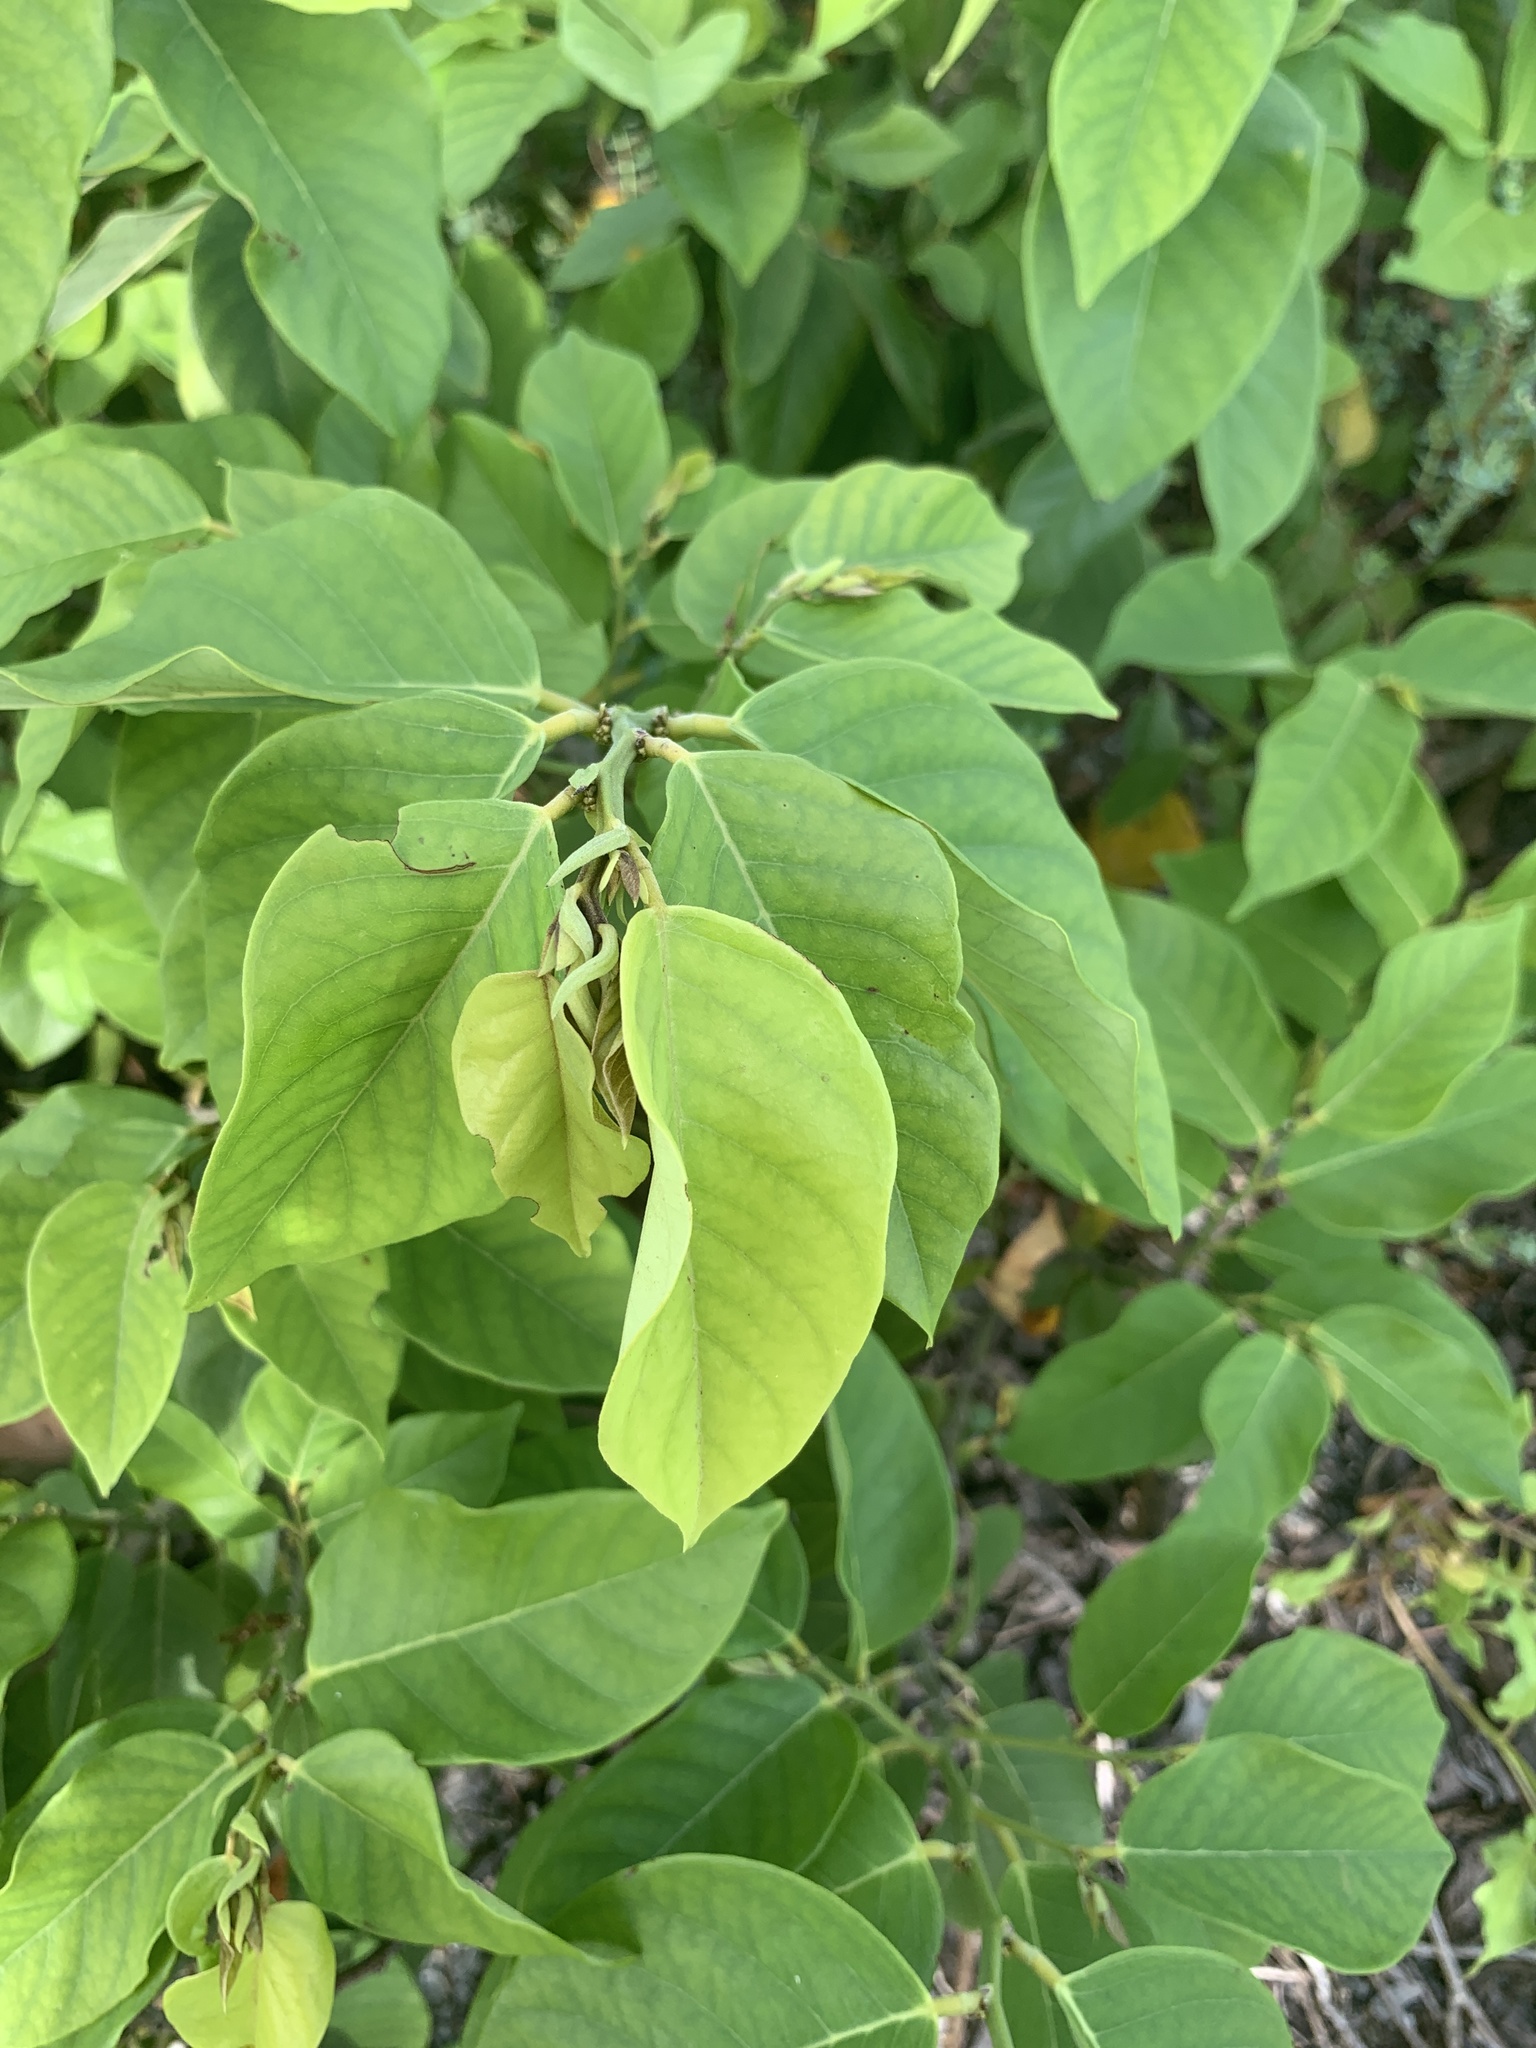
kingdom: Plantae
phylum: Tracheophyta
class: Magnoliopsida
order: Fabales
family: Fabaceae
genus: Dalbergia
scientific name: Dalbergia ecastaphyllum
